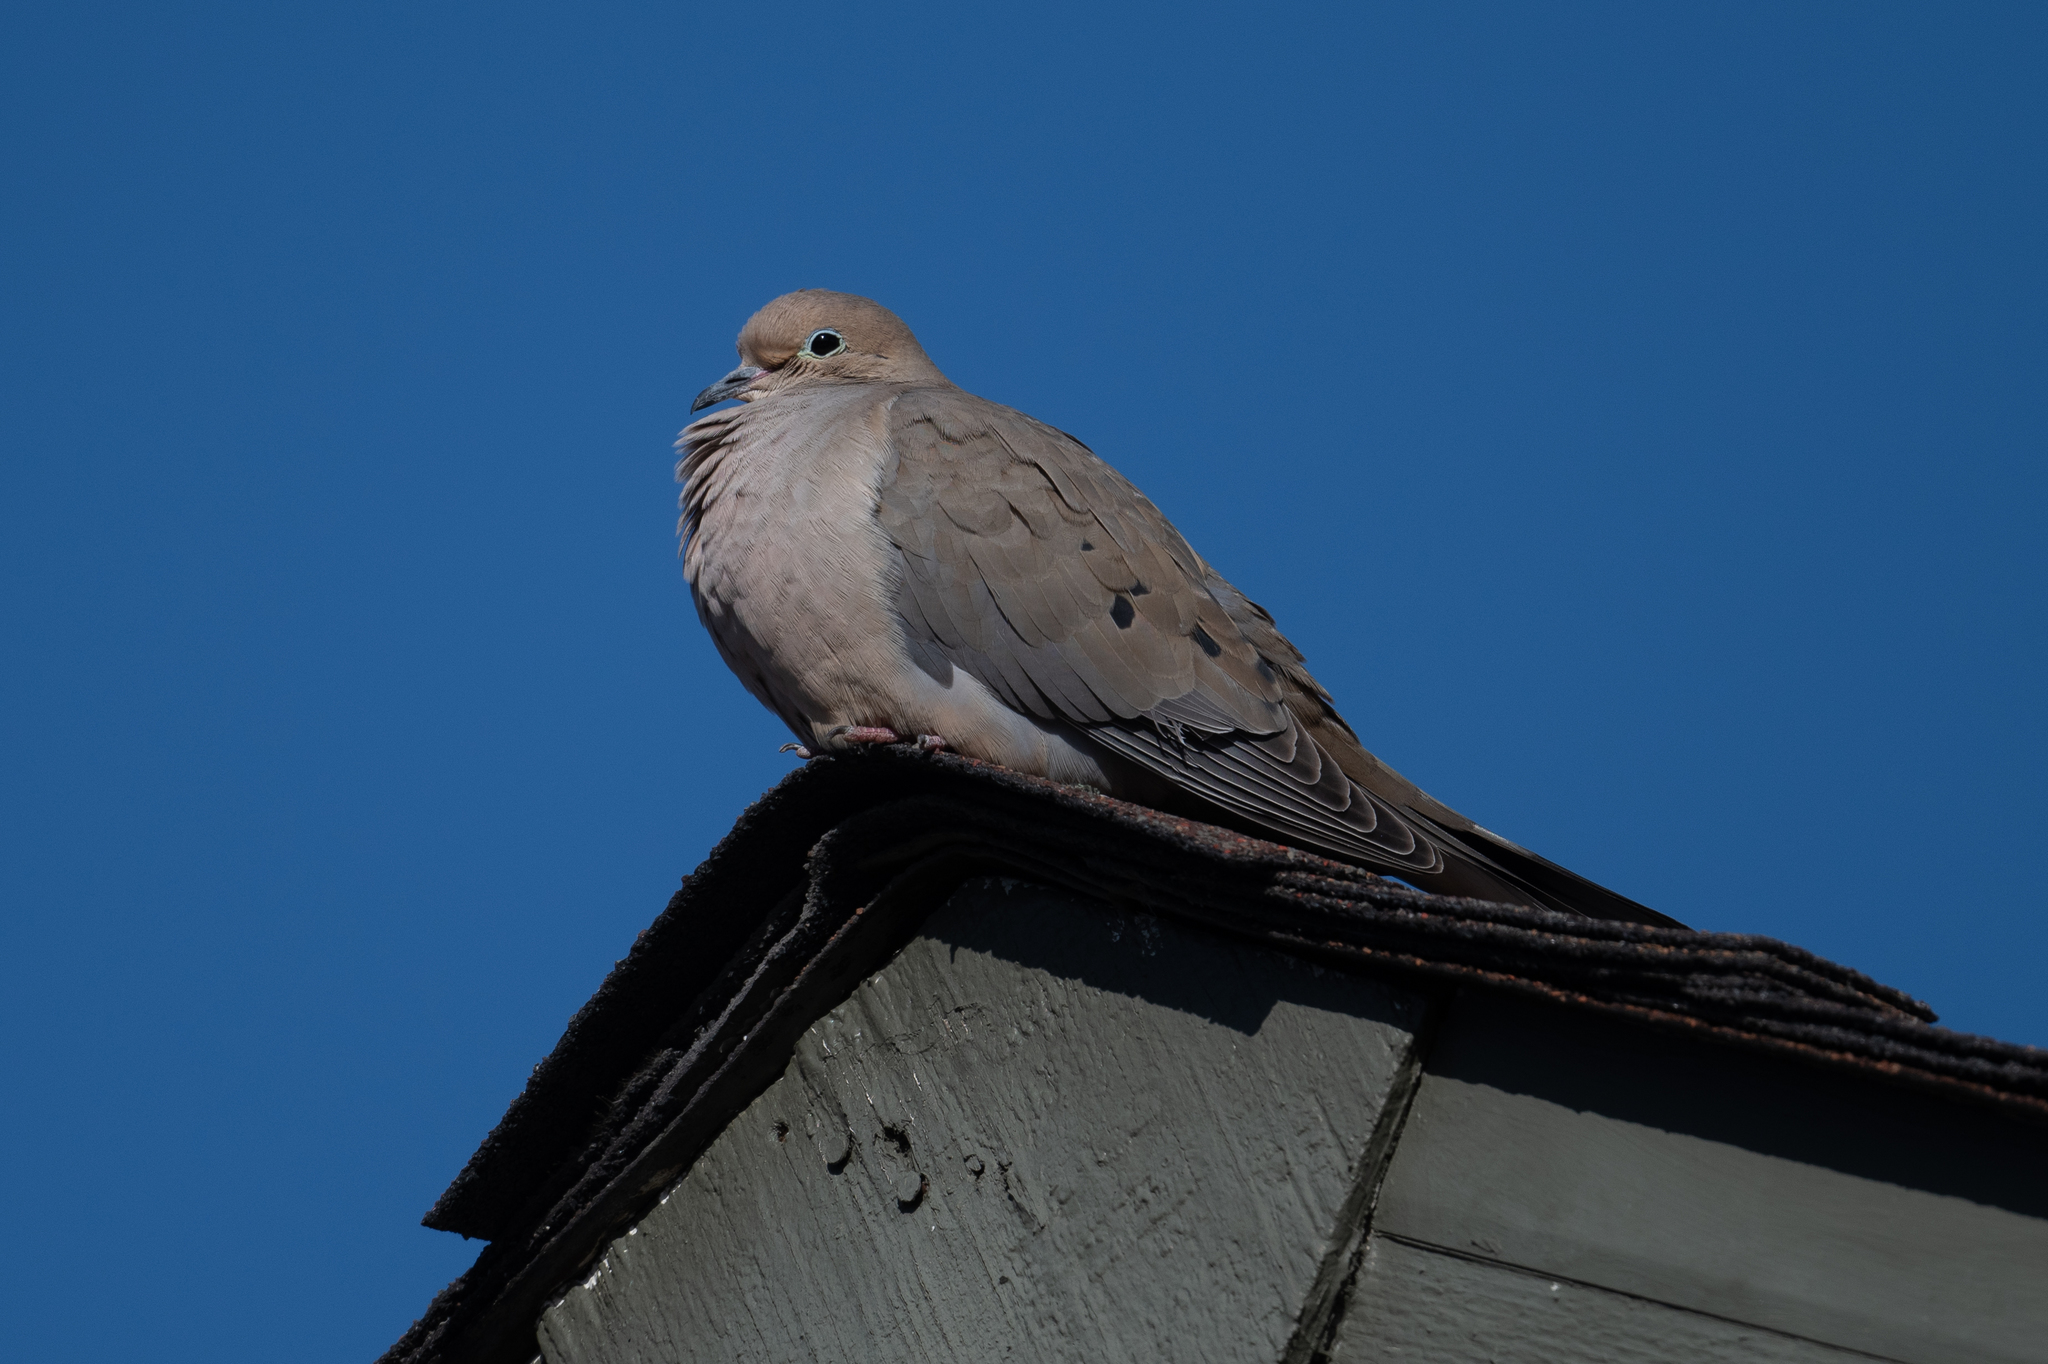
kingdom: Animalia
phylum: Chordata
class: Aves
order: Columbiformes
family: Columbidae
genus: Zenaida
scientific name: Zenaida macroura
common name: Mourning dove
